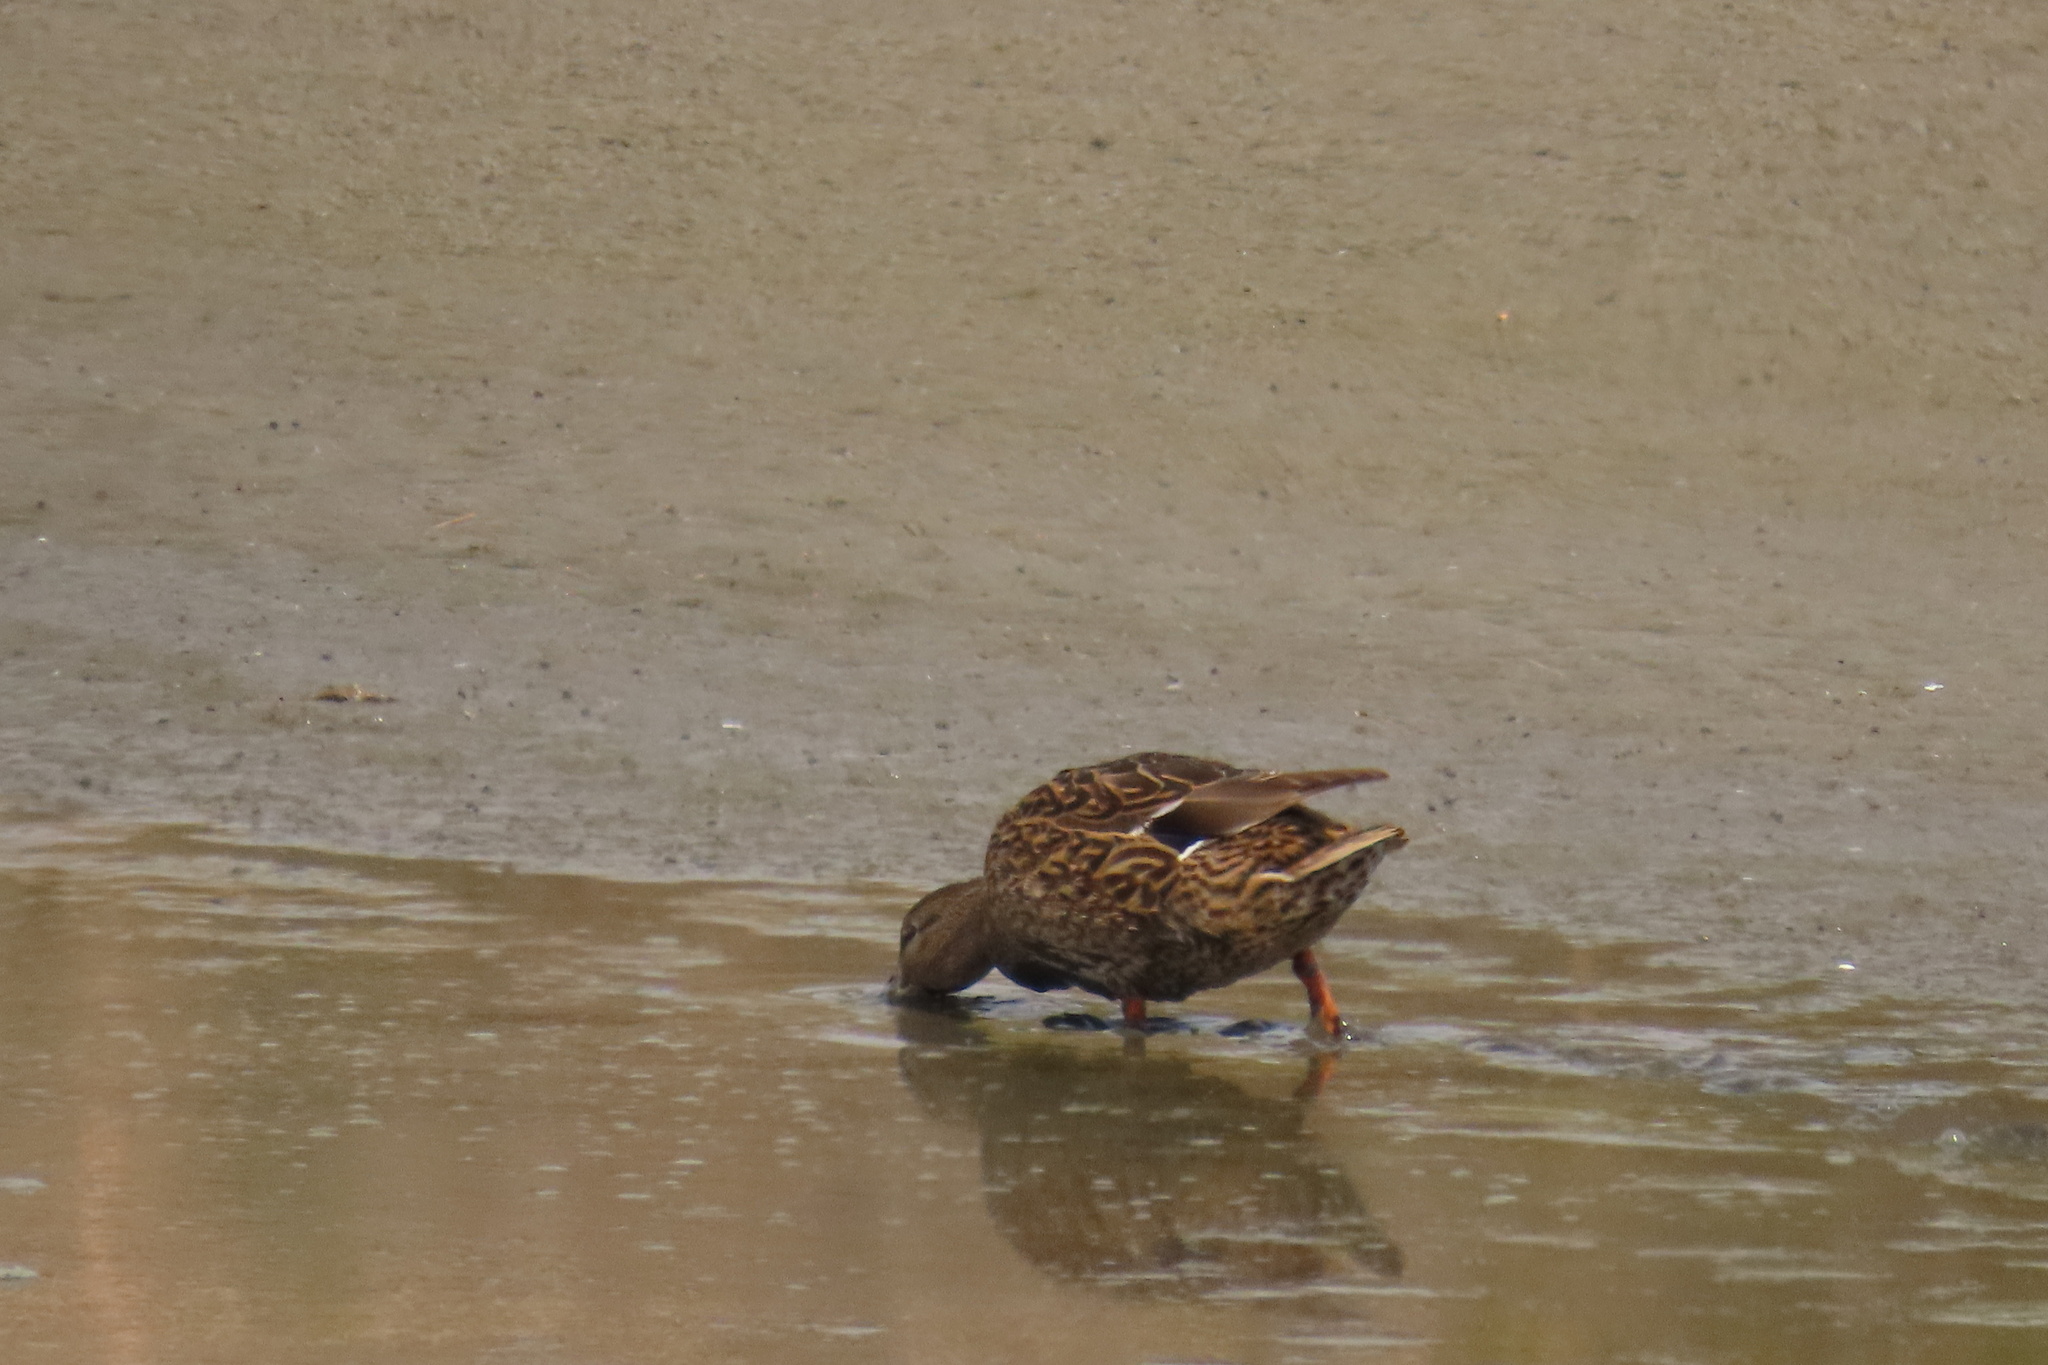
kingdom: Animalia
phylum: Chordata
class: Aves
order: Anseriformes
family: Anatidae
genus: Anas
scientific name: Anas platyrhynchos
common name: Mallard
